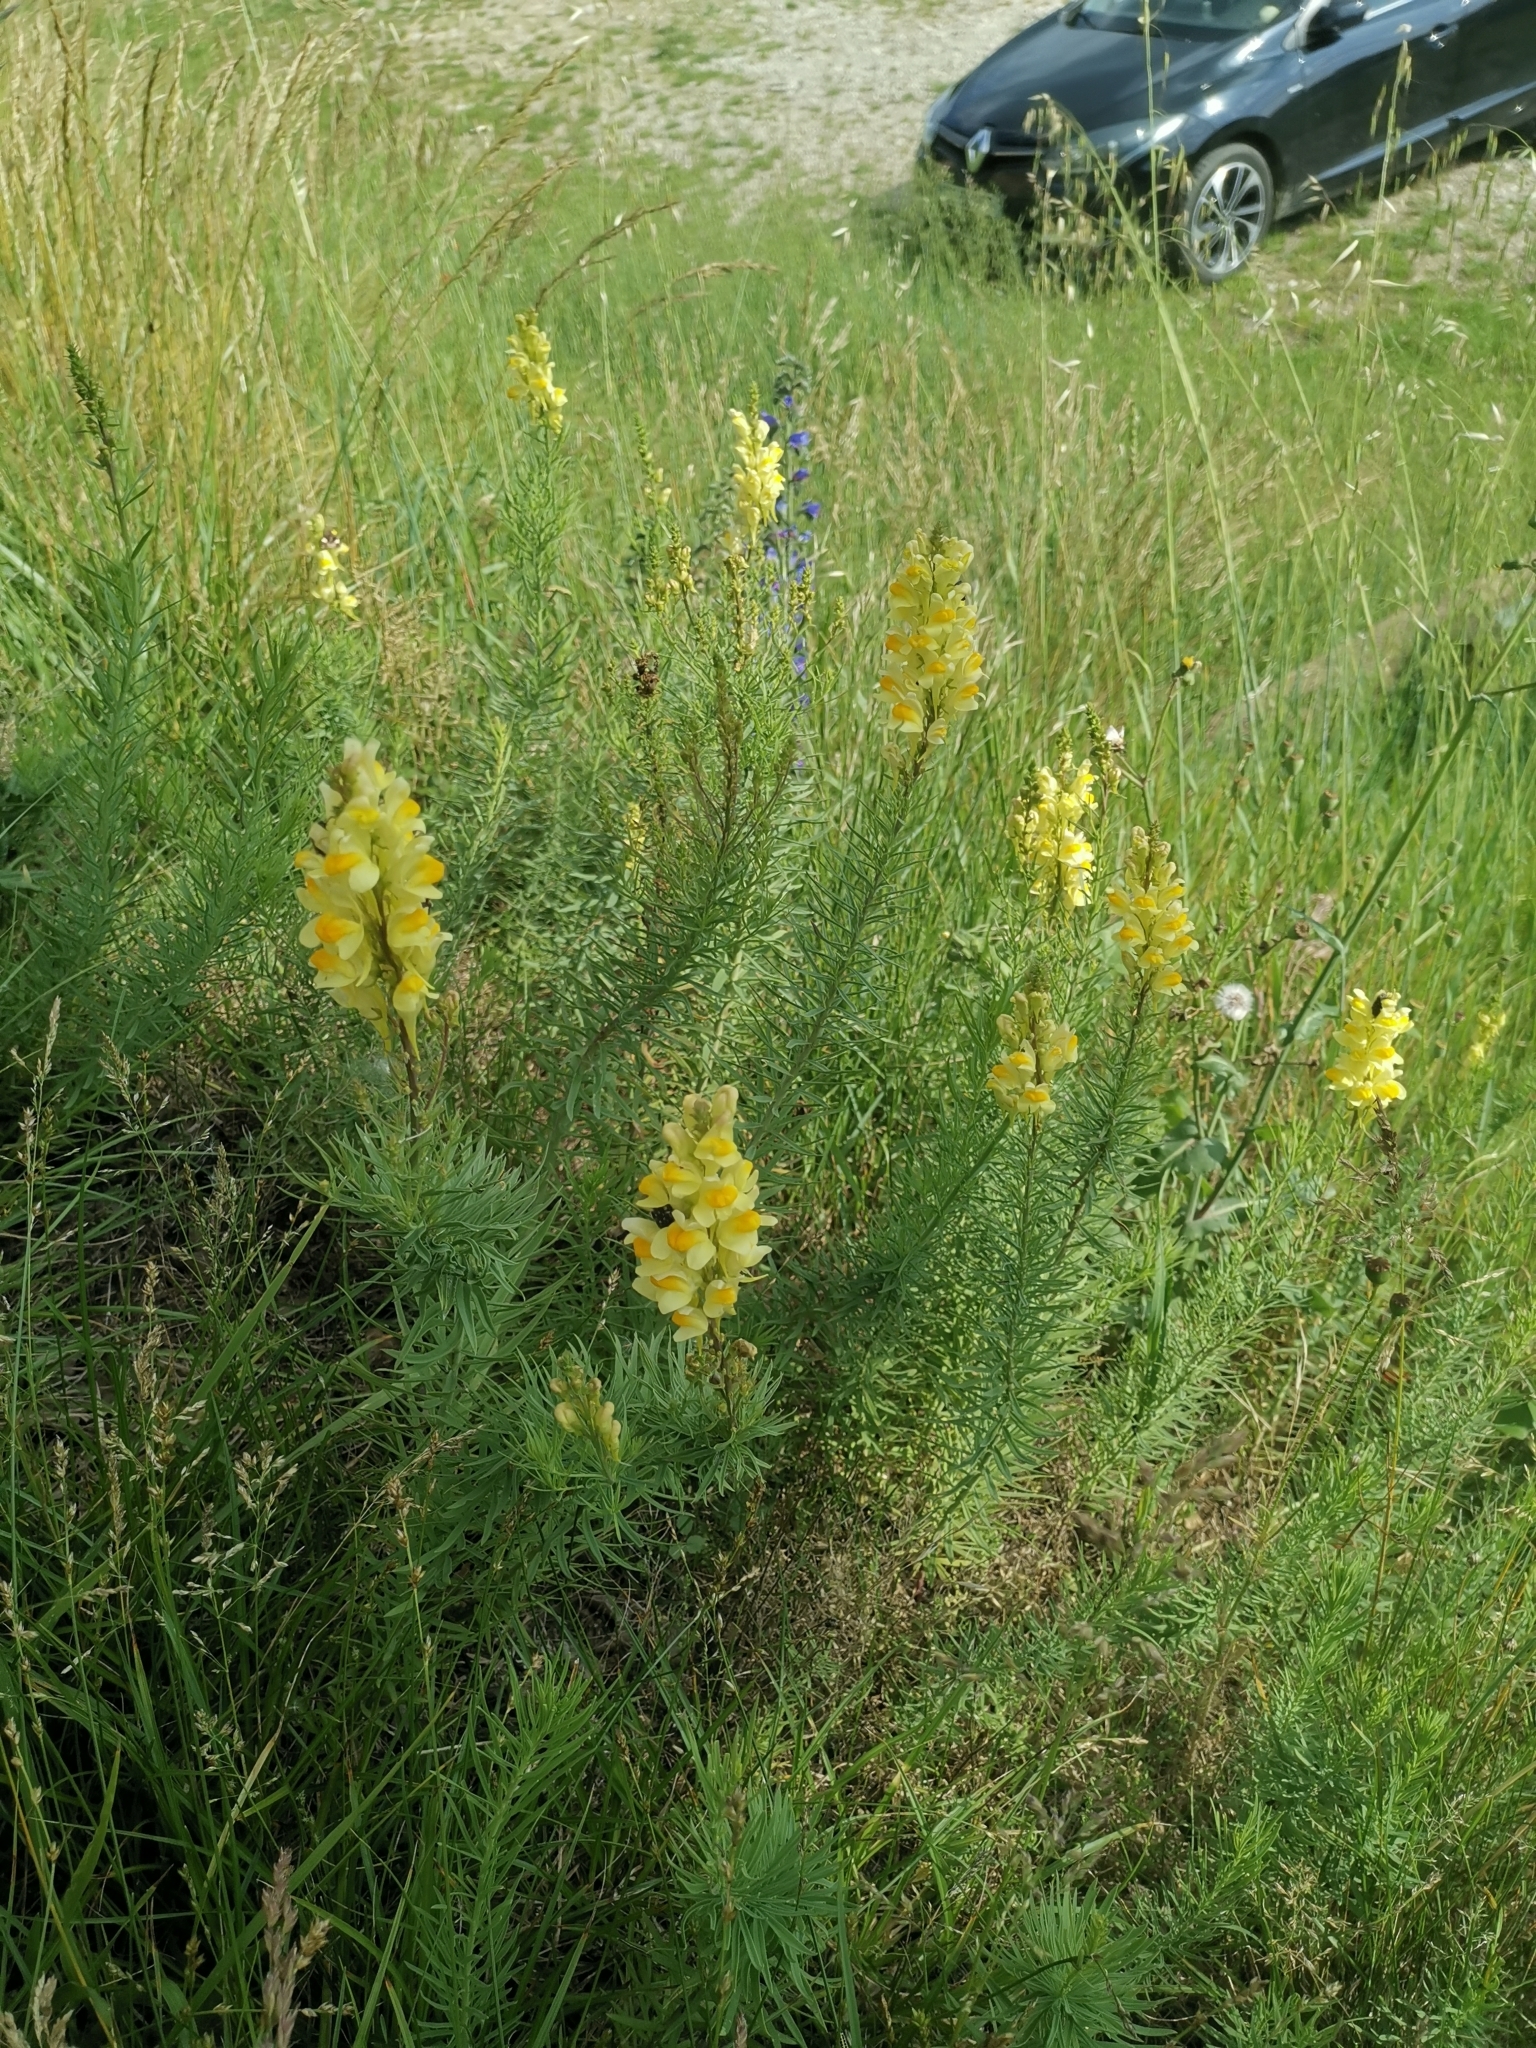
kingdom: Plantae
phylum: Tracheophyta
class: Magnoliopsida
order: Lamiales
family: Plantaginaceae
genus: Linaria
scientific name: Linaria vulgaris
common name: Butter and eggs
